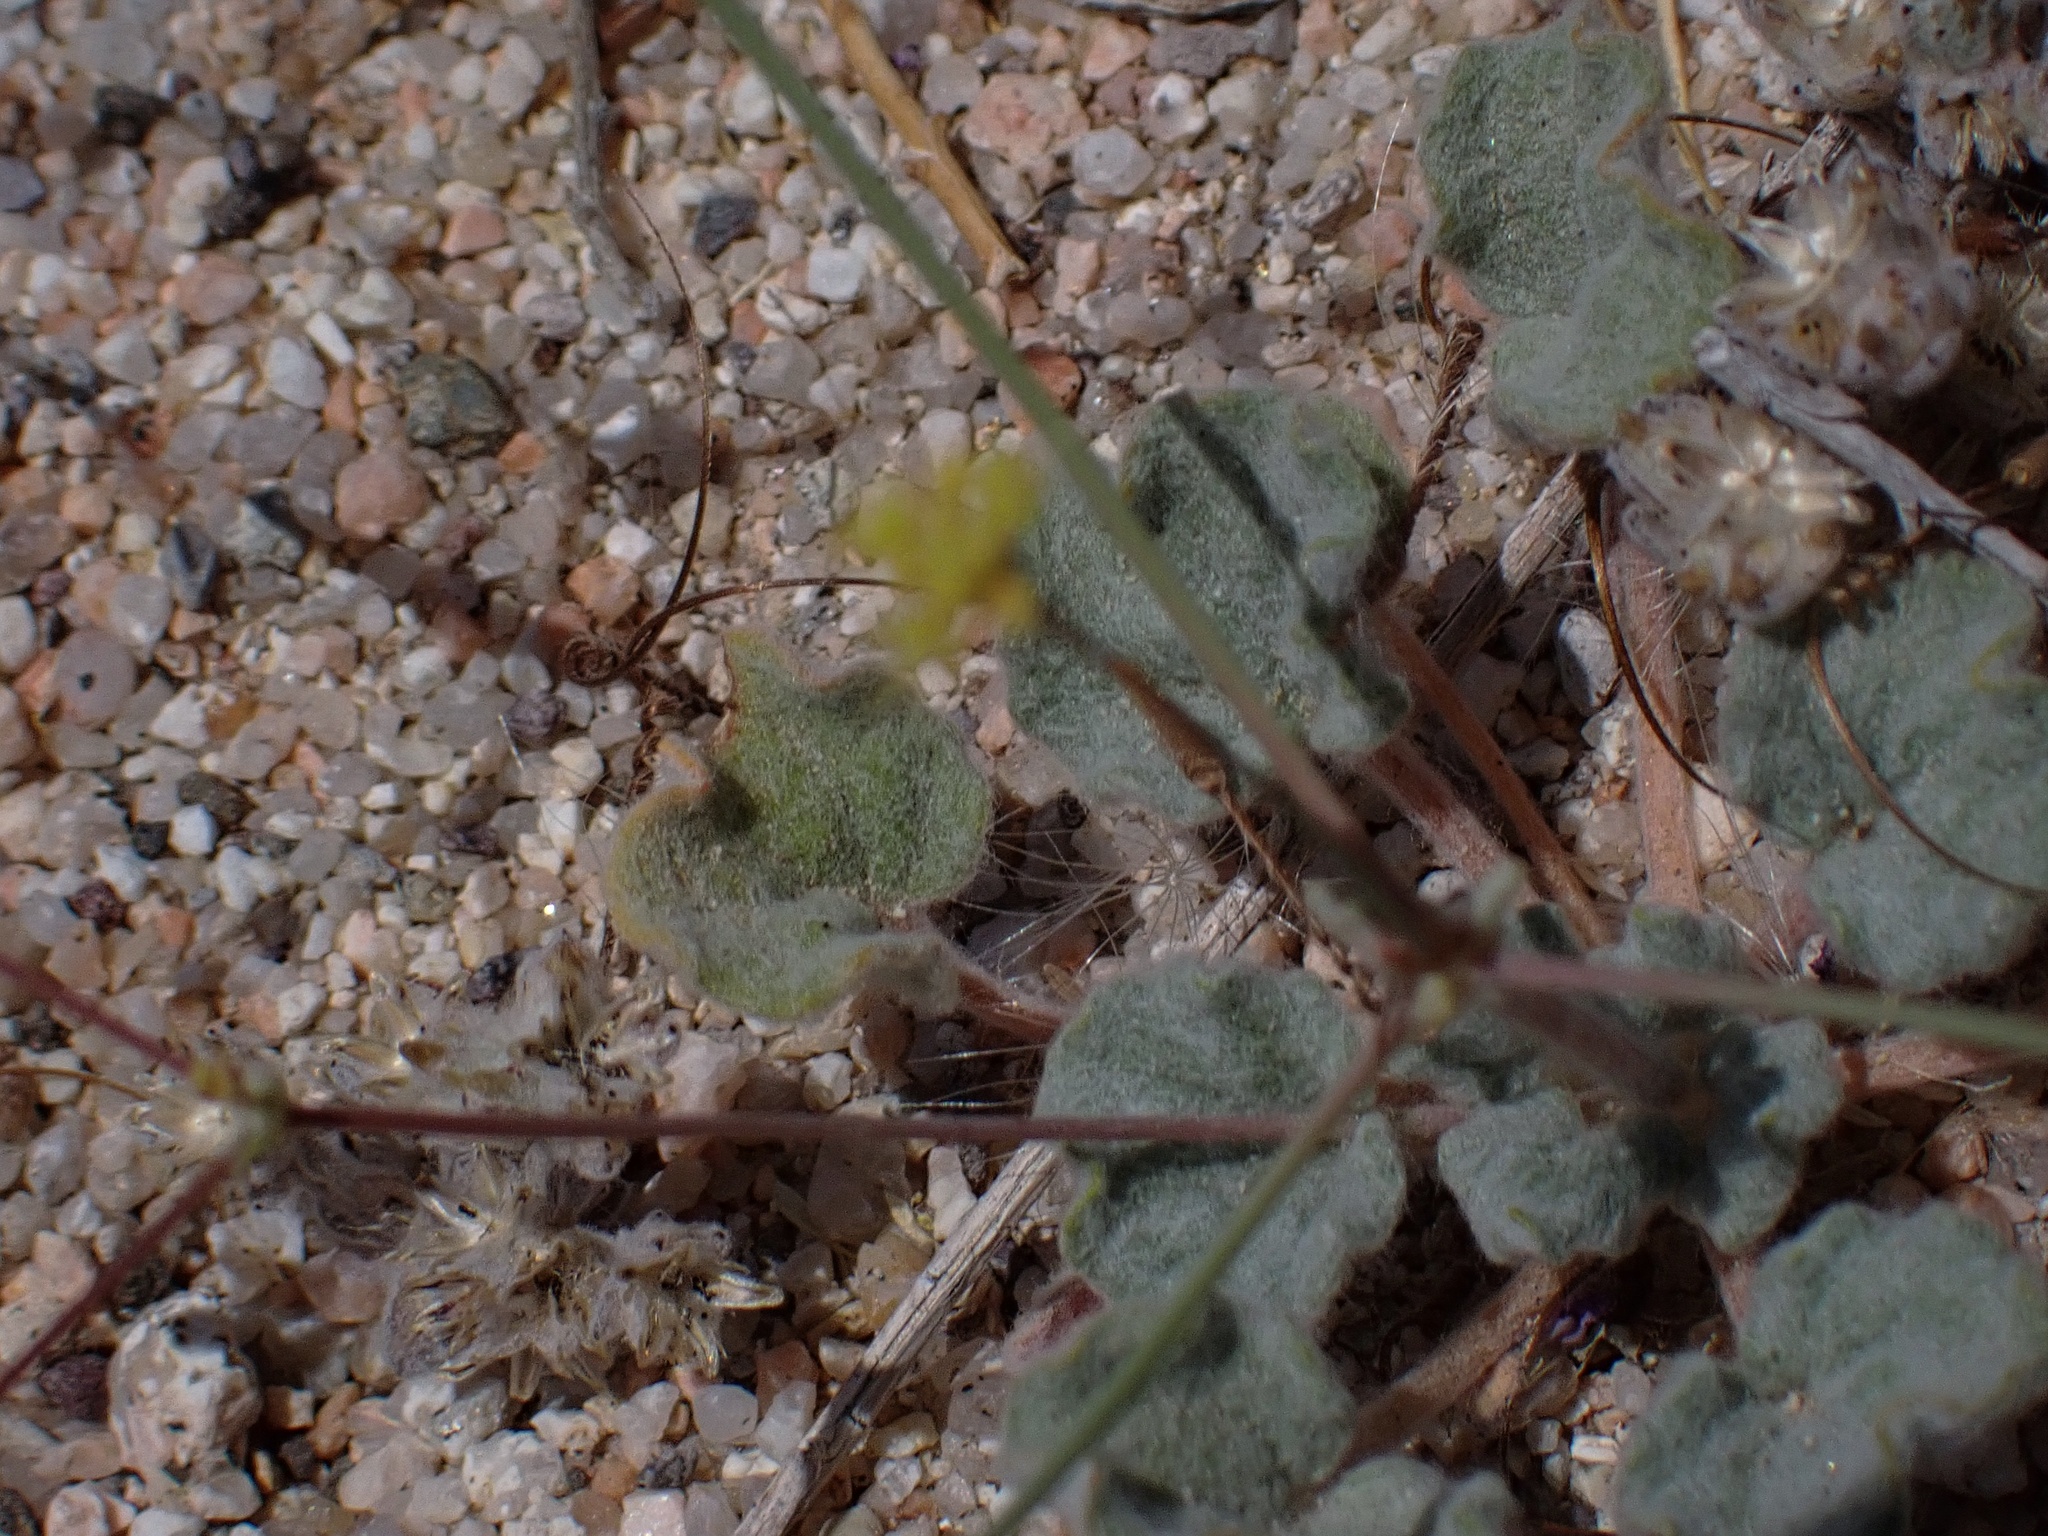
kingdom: Plantae
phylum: Tracheophyta
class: Magnoliopsida
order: Caryophyllales
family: Polygonaceae
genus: Eriogonum
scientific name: Eriogonum reniforme
